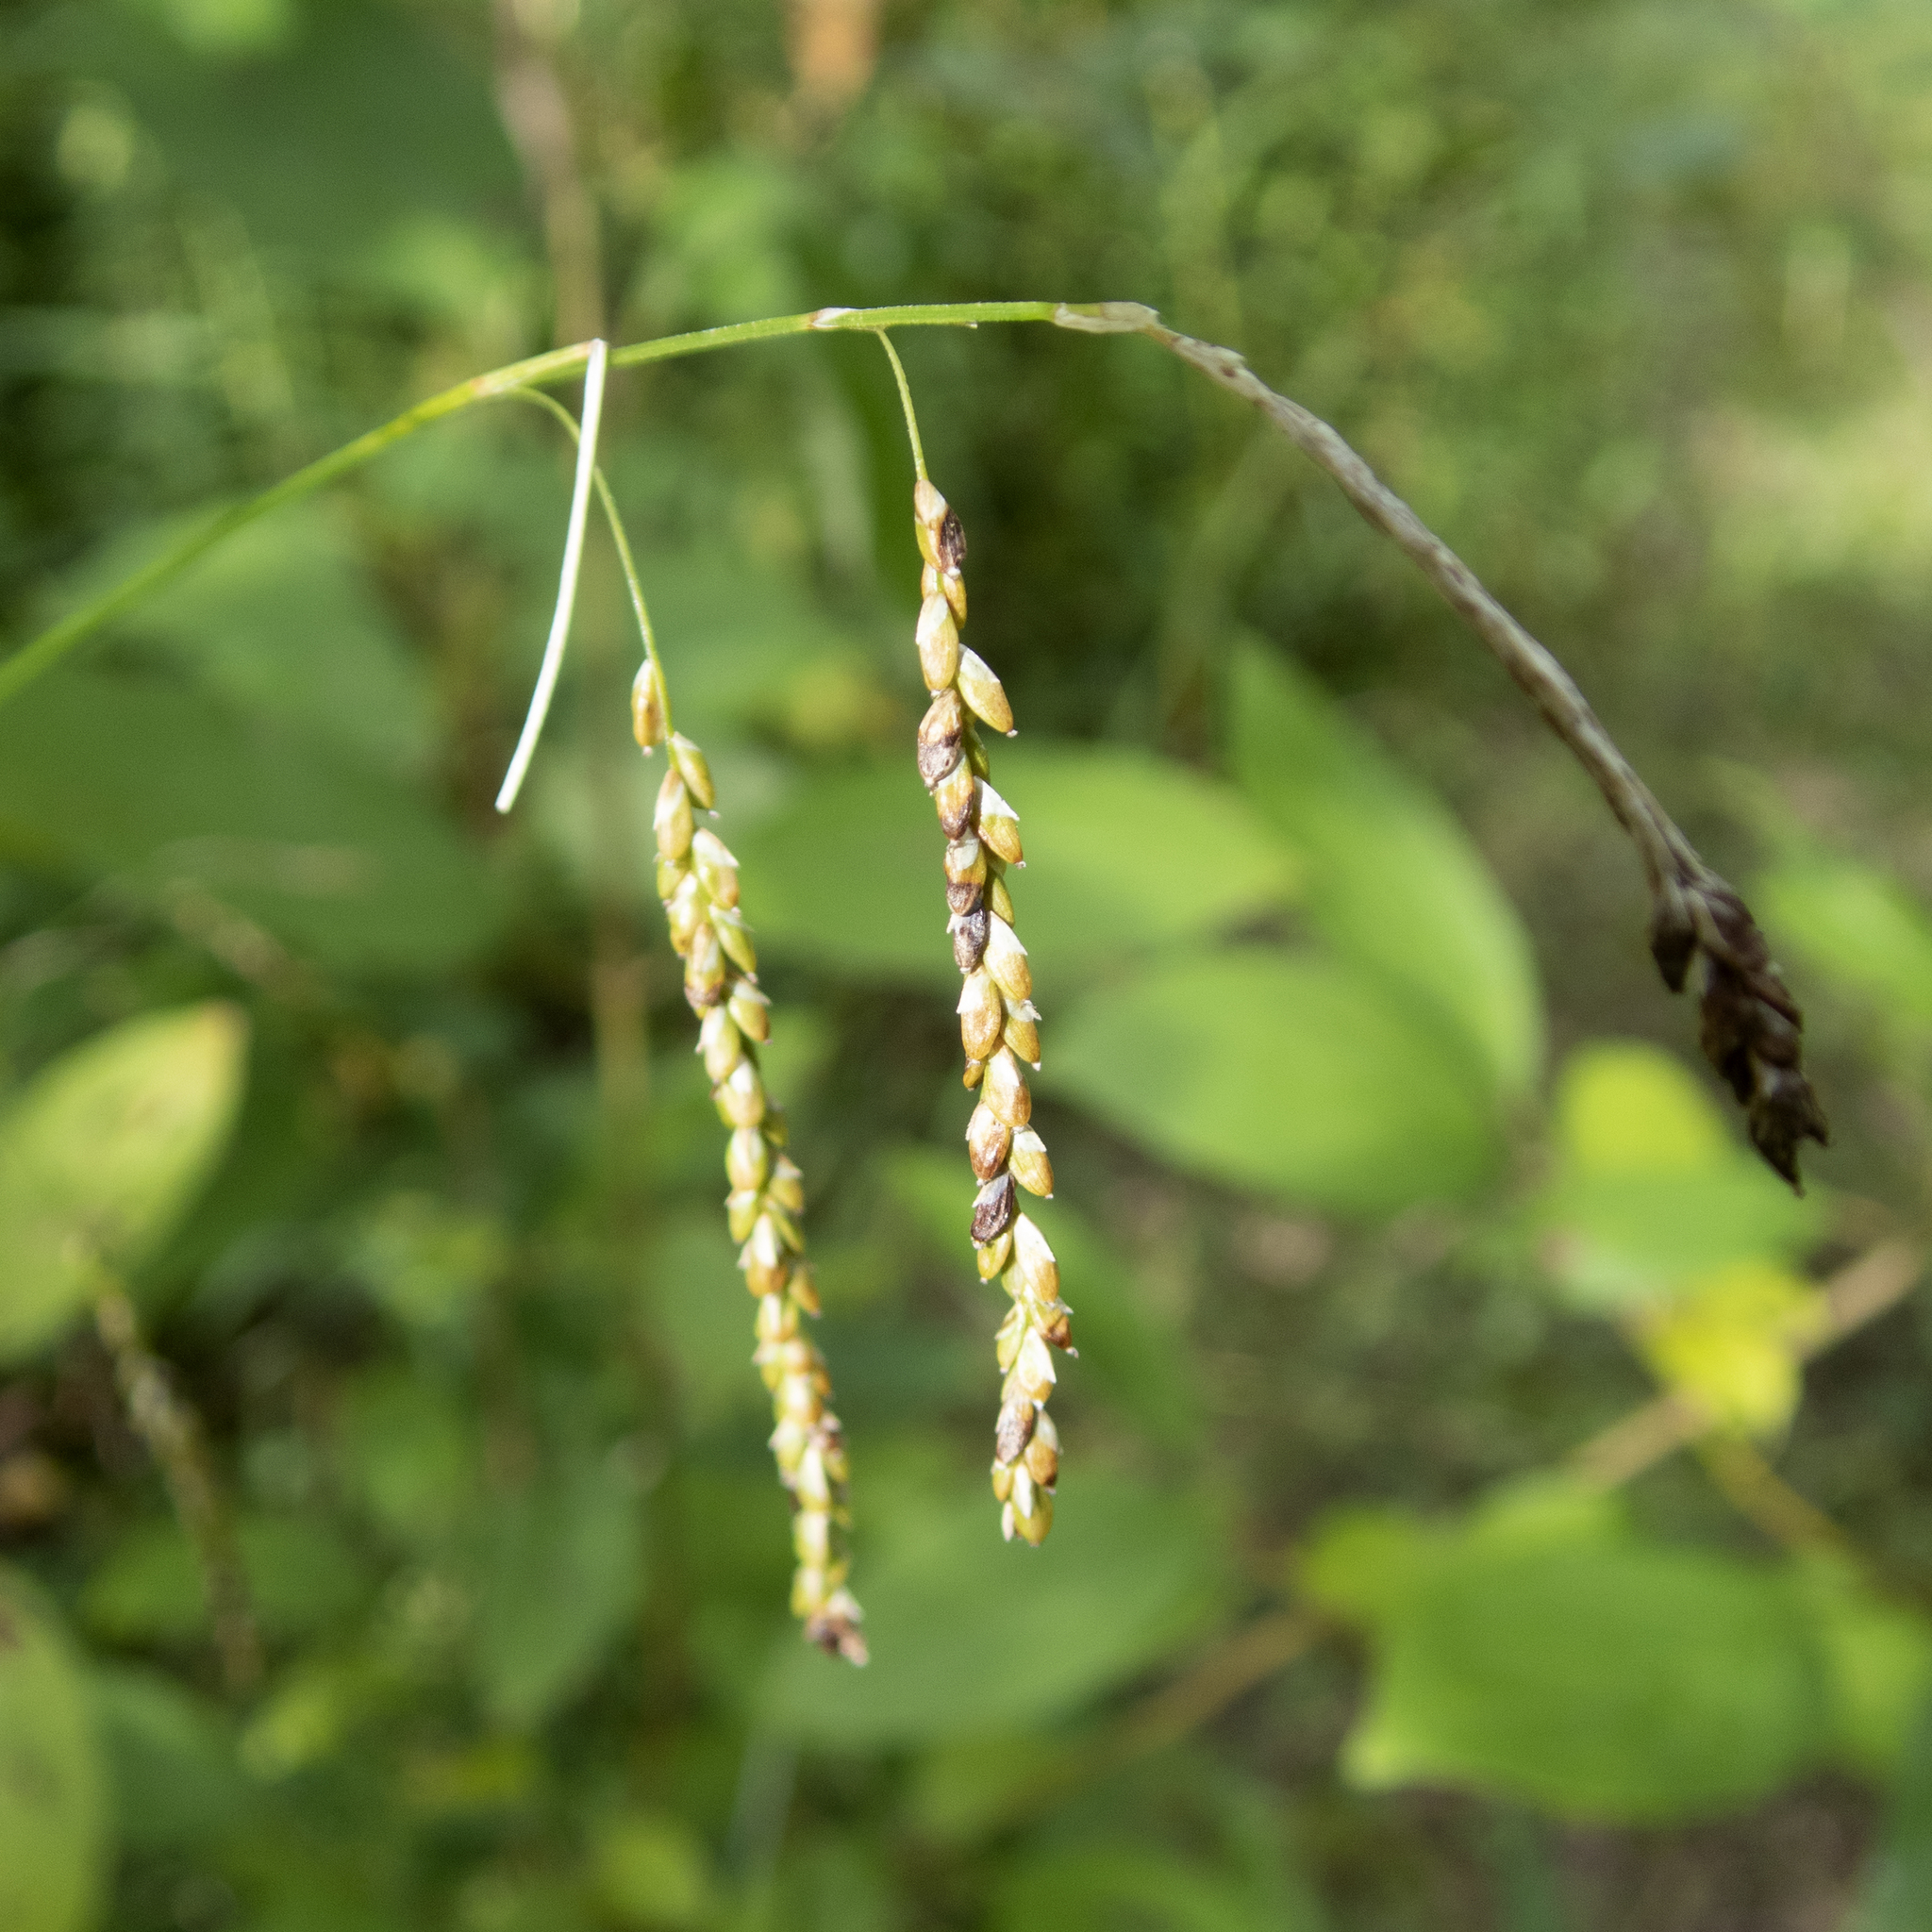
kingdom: Plantae
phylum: Tracheophyta
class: Liliopsida
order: Poales
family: Cyperaceae
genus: Carex
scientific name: Carex gracillima
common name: Graceful sedge
